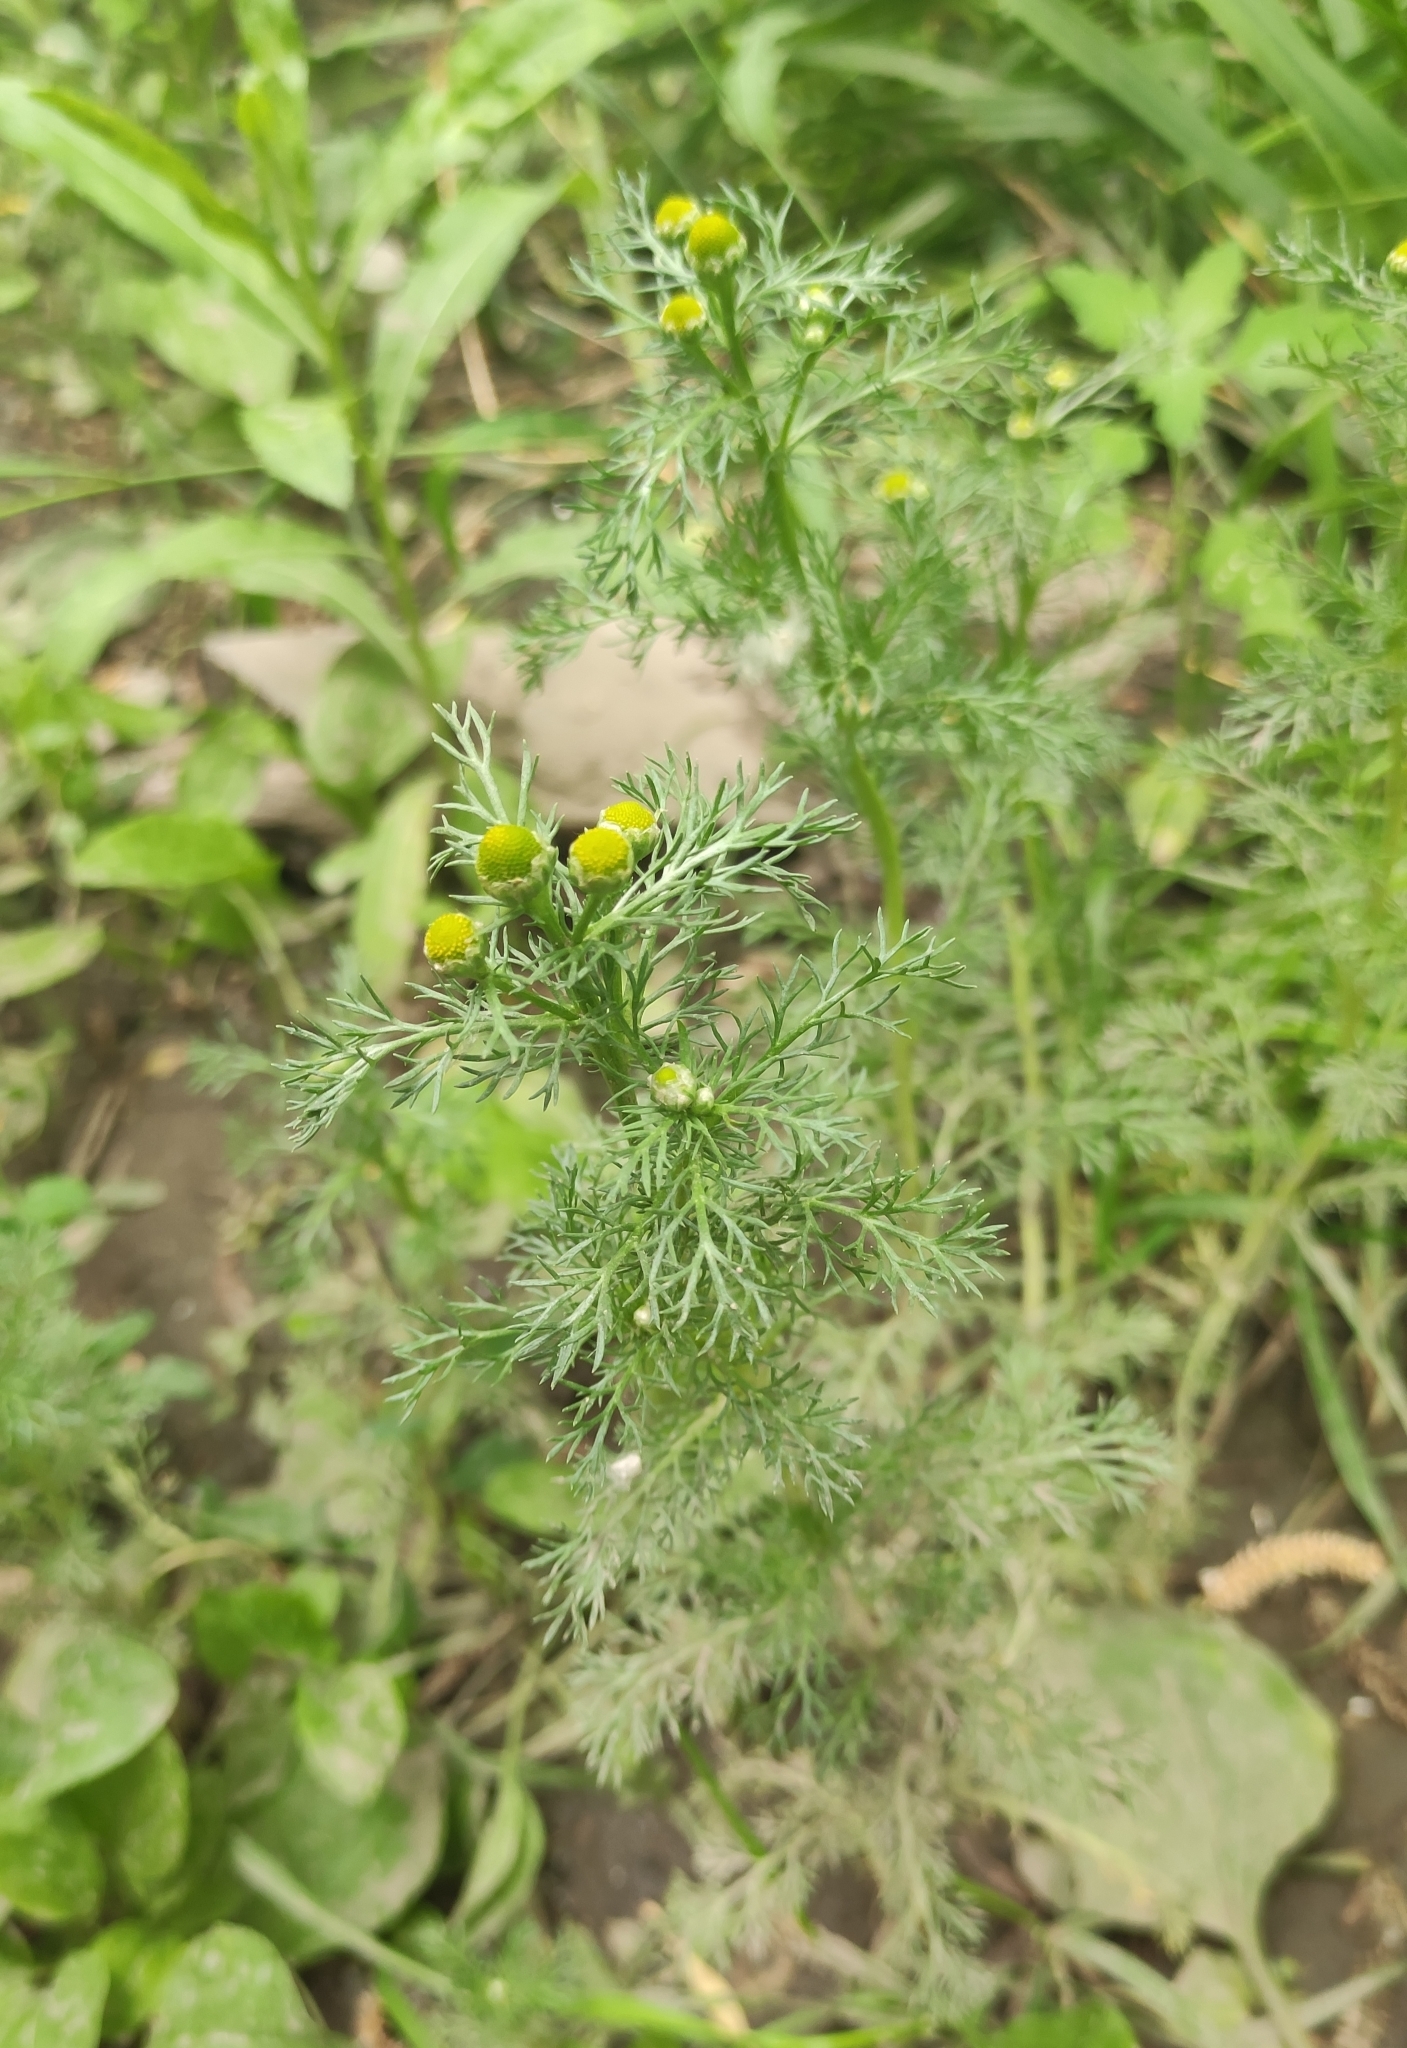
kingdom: Plantae
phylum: Tracheophyta
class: Magnoliopsida
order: Asterales
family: Asteraceae
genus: Matricaria
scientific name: Matricaria discoidea
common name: Disc mayweed
